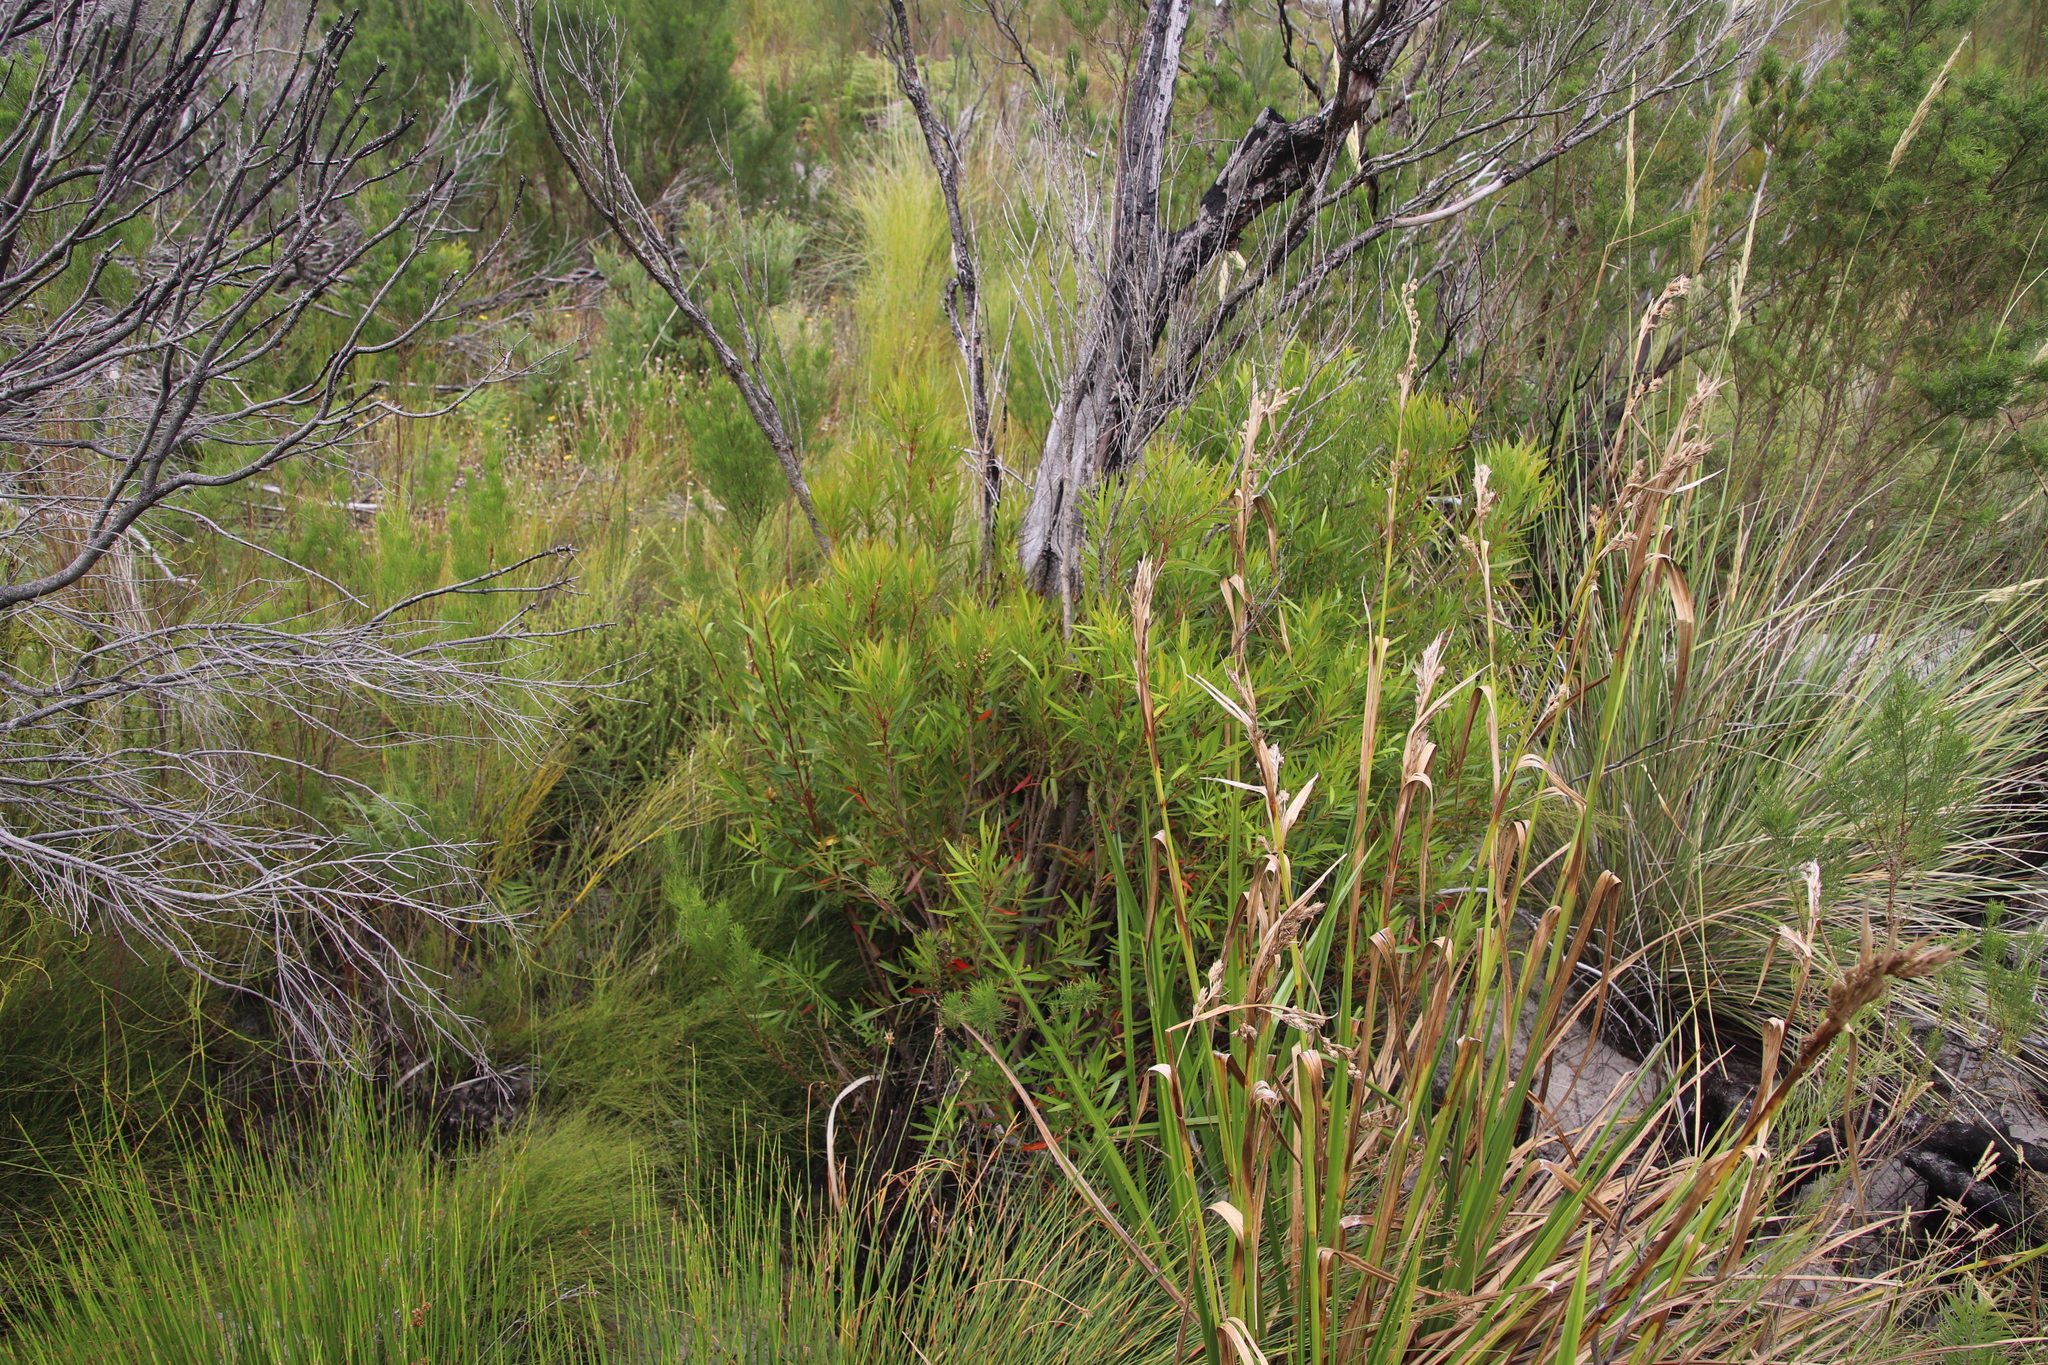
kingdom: Plantae
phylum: Tracheophyta
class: Magnoliopsida
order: Myrtales
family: Myrtaceae
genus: Callistemon
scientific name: Callistemon lanceolatus
